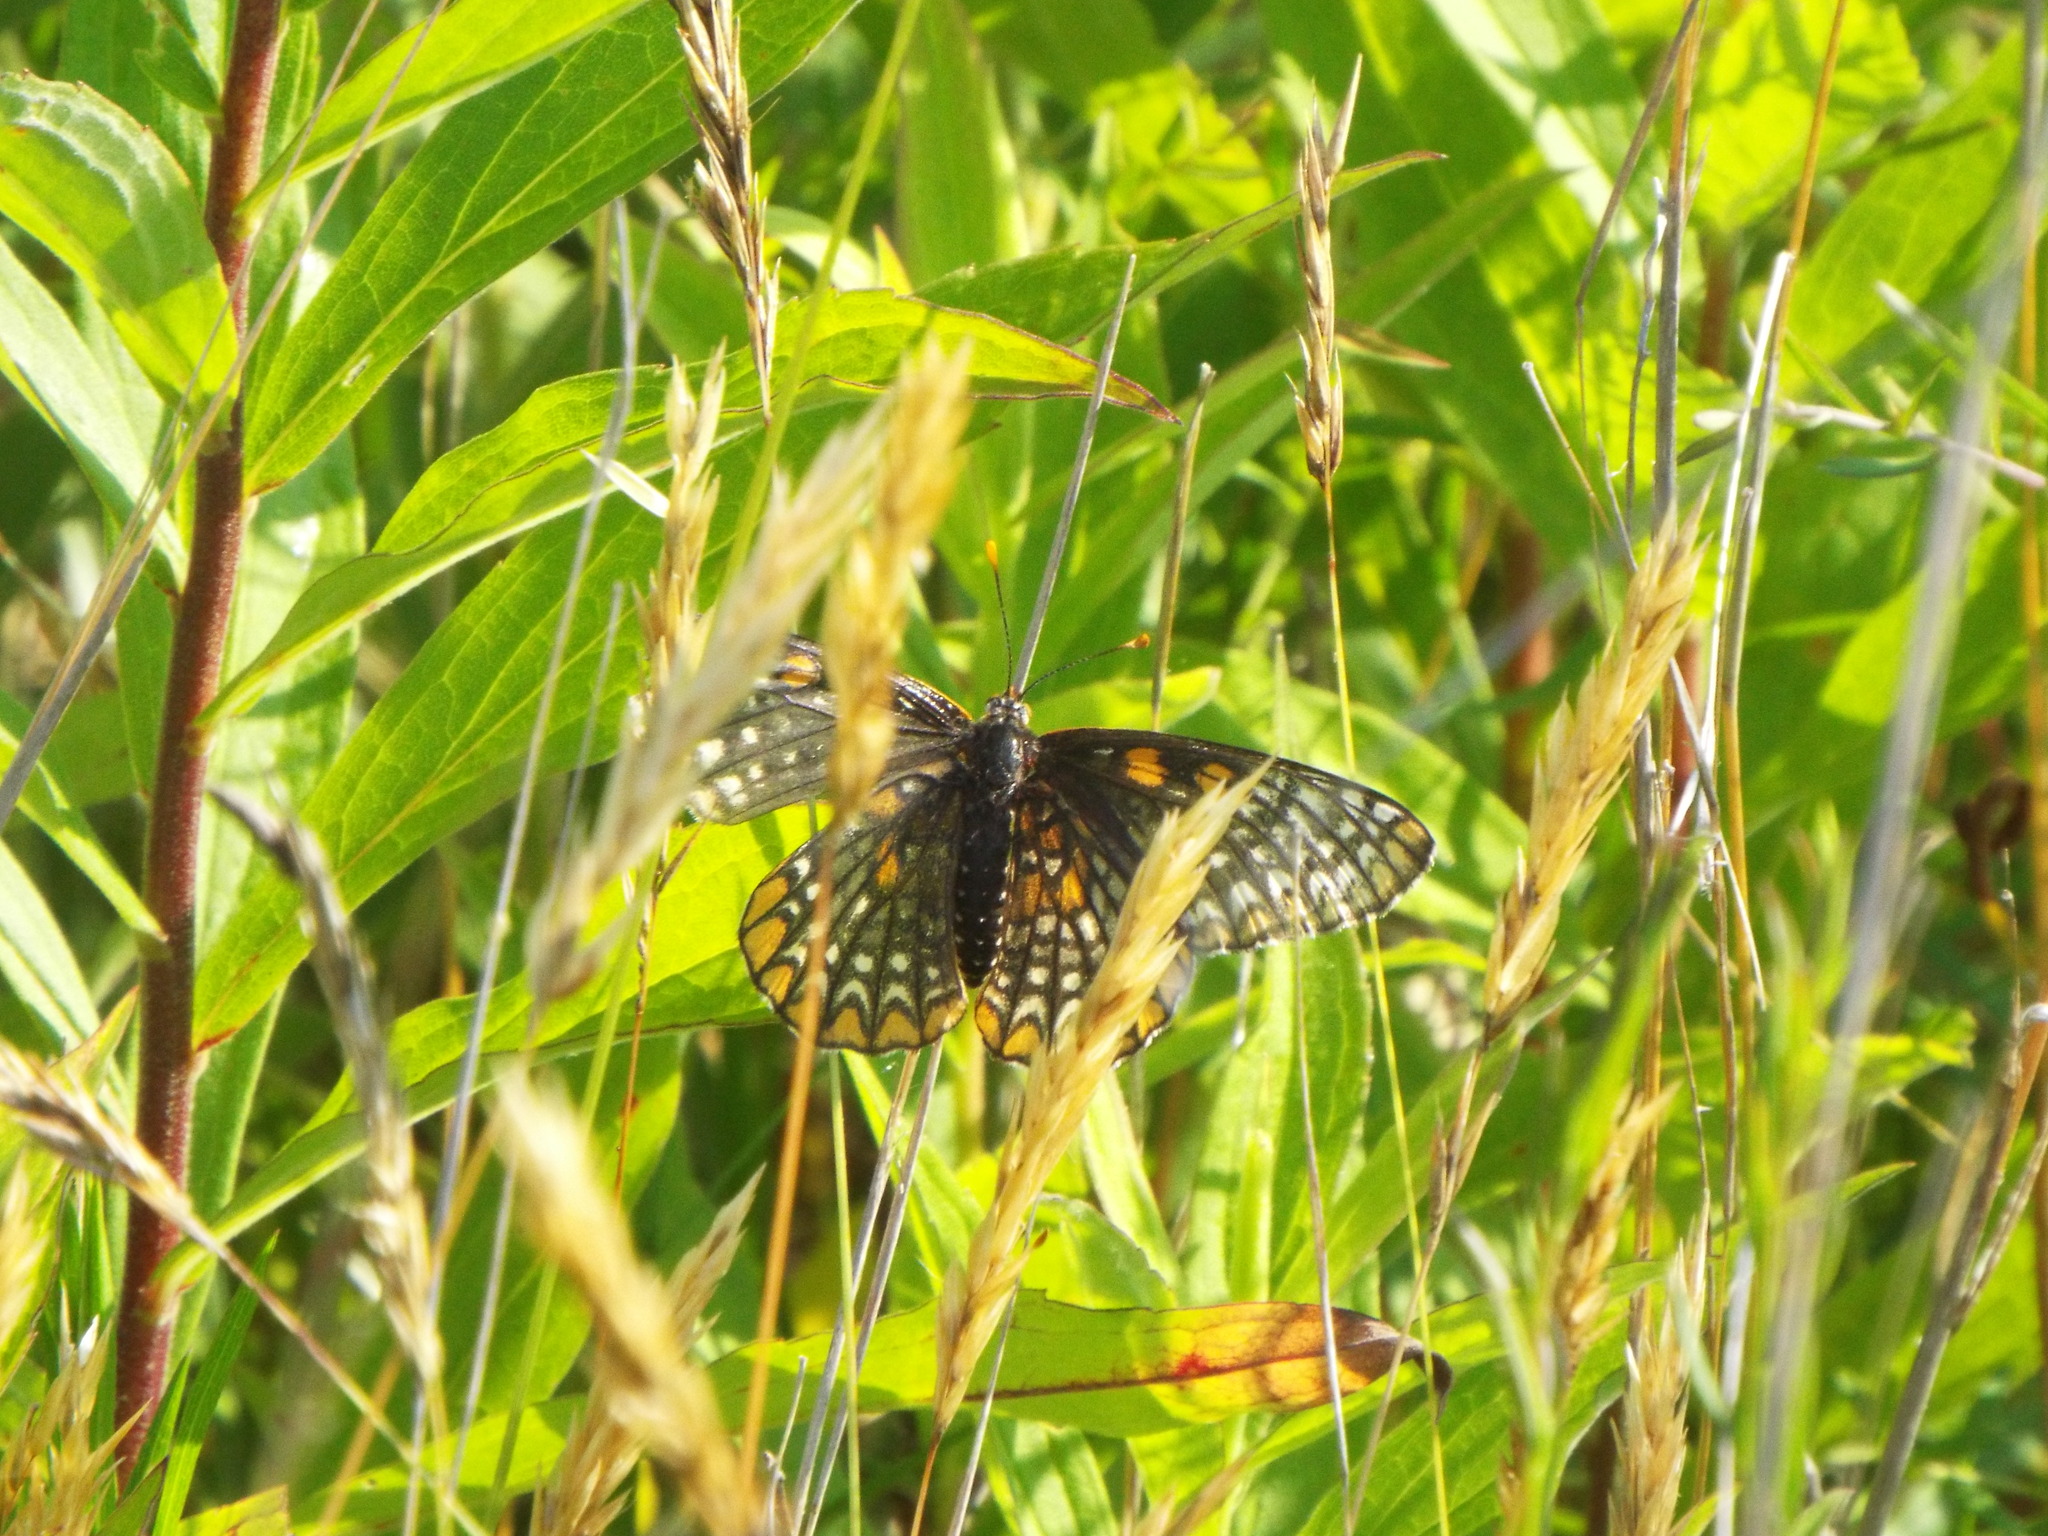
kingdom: Animalia
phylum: Arthropoda
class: Insecta
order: Lepidoptera
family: Nymphalidae
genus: Euphydryas
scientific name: Euphydryas phaeton
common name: Baltimore checkerspot
